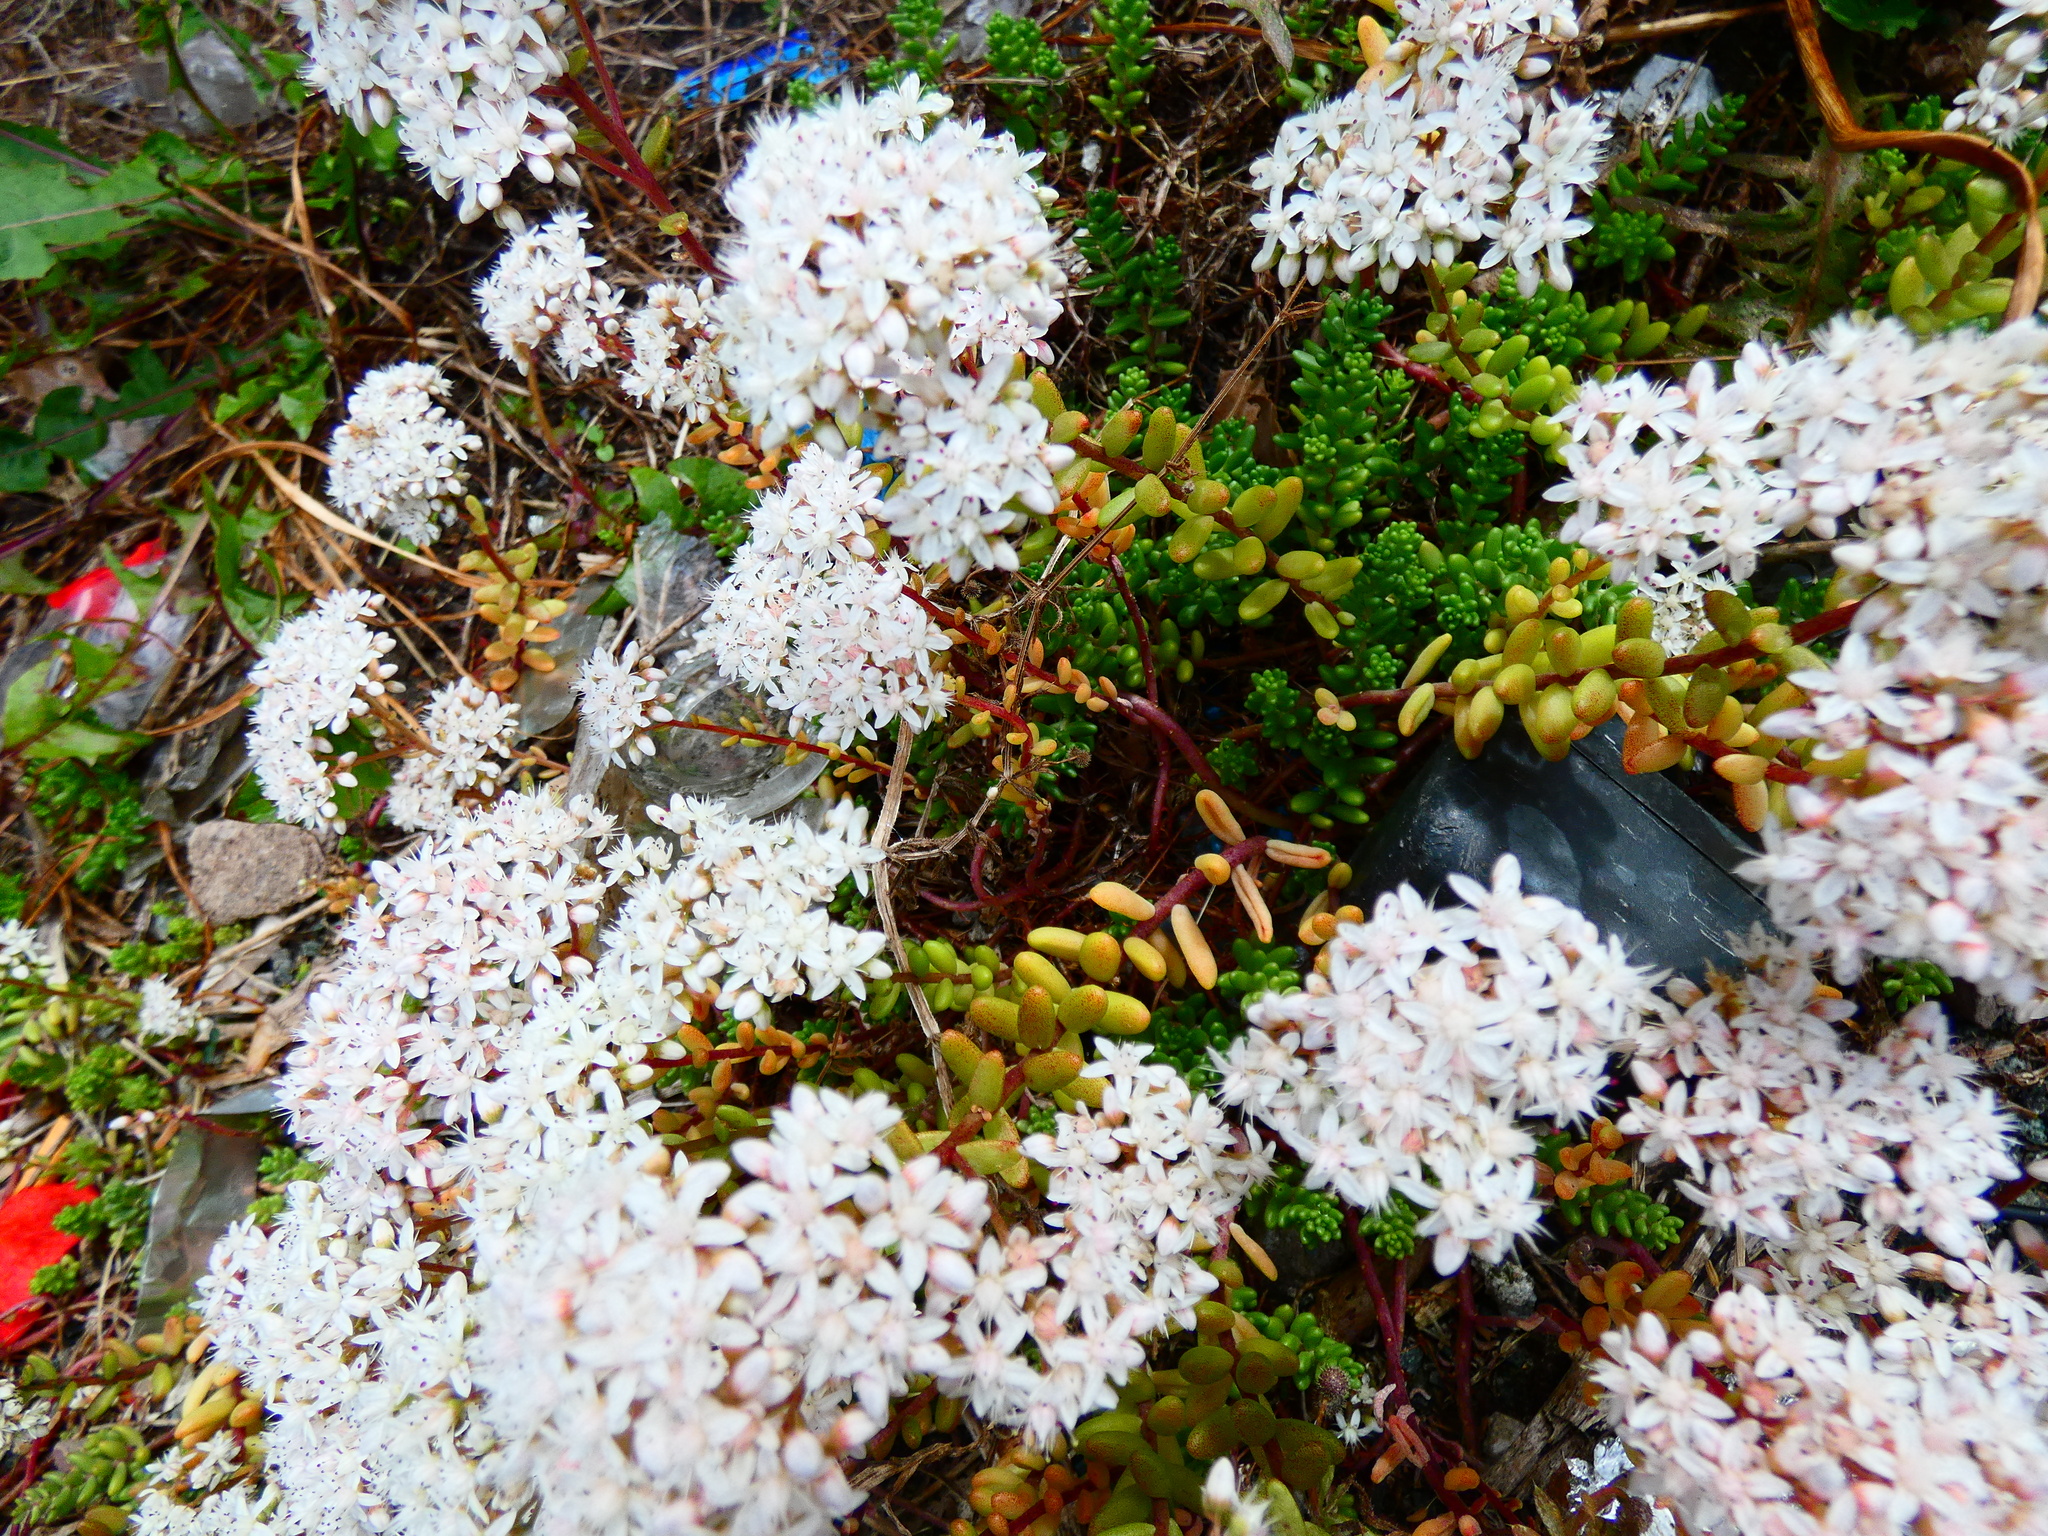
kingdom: Plantae
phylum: Tracheophyta
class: Magnoliopsida
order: Saxifragales
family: Crassulaceae
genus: Sedum
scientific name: Sedum album
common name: White stonecrop
